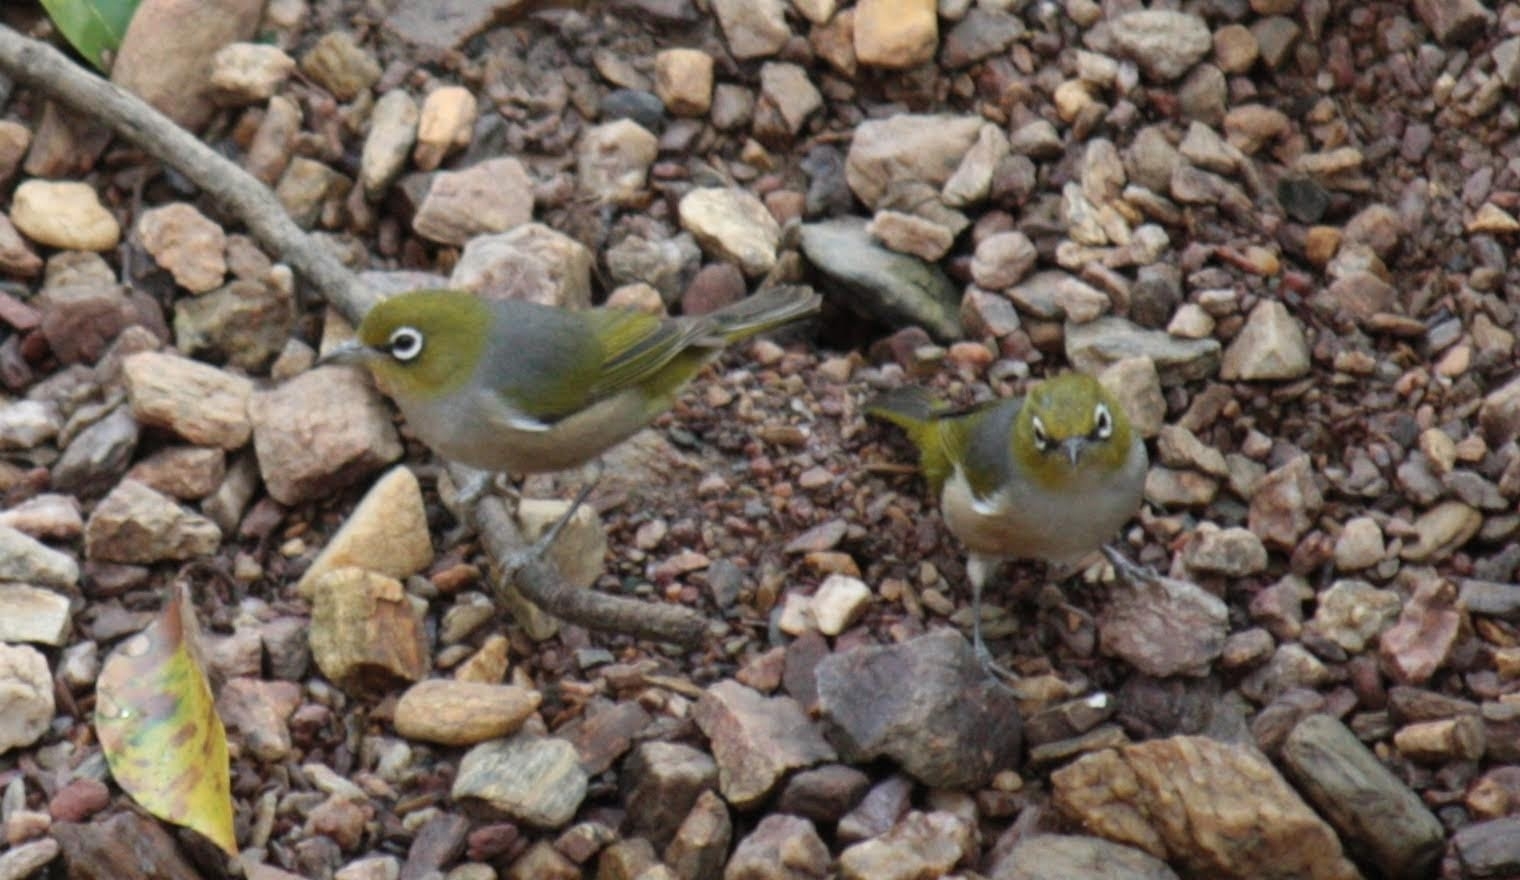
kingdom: Animalia
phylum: Chordata
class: Aves
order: Passeriformes
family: Zosteropidae
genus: Zosterops
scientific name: Zosterops lateralis
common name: Silvereye
